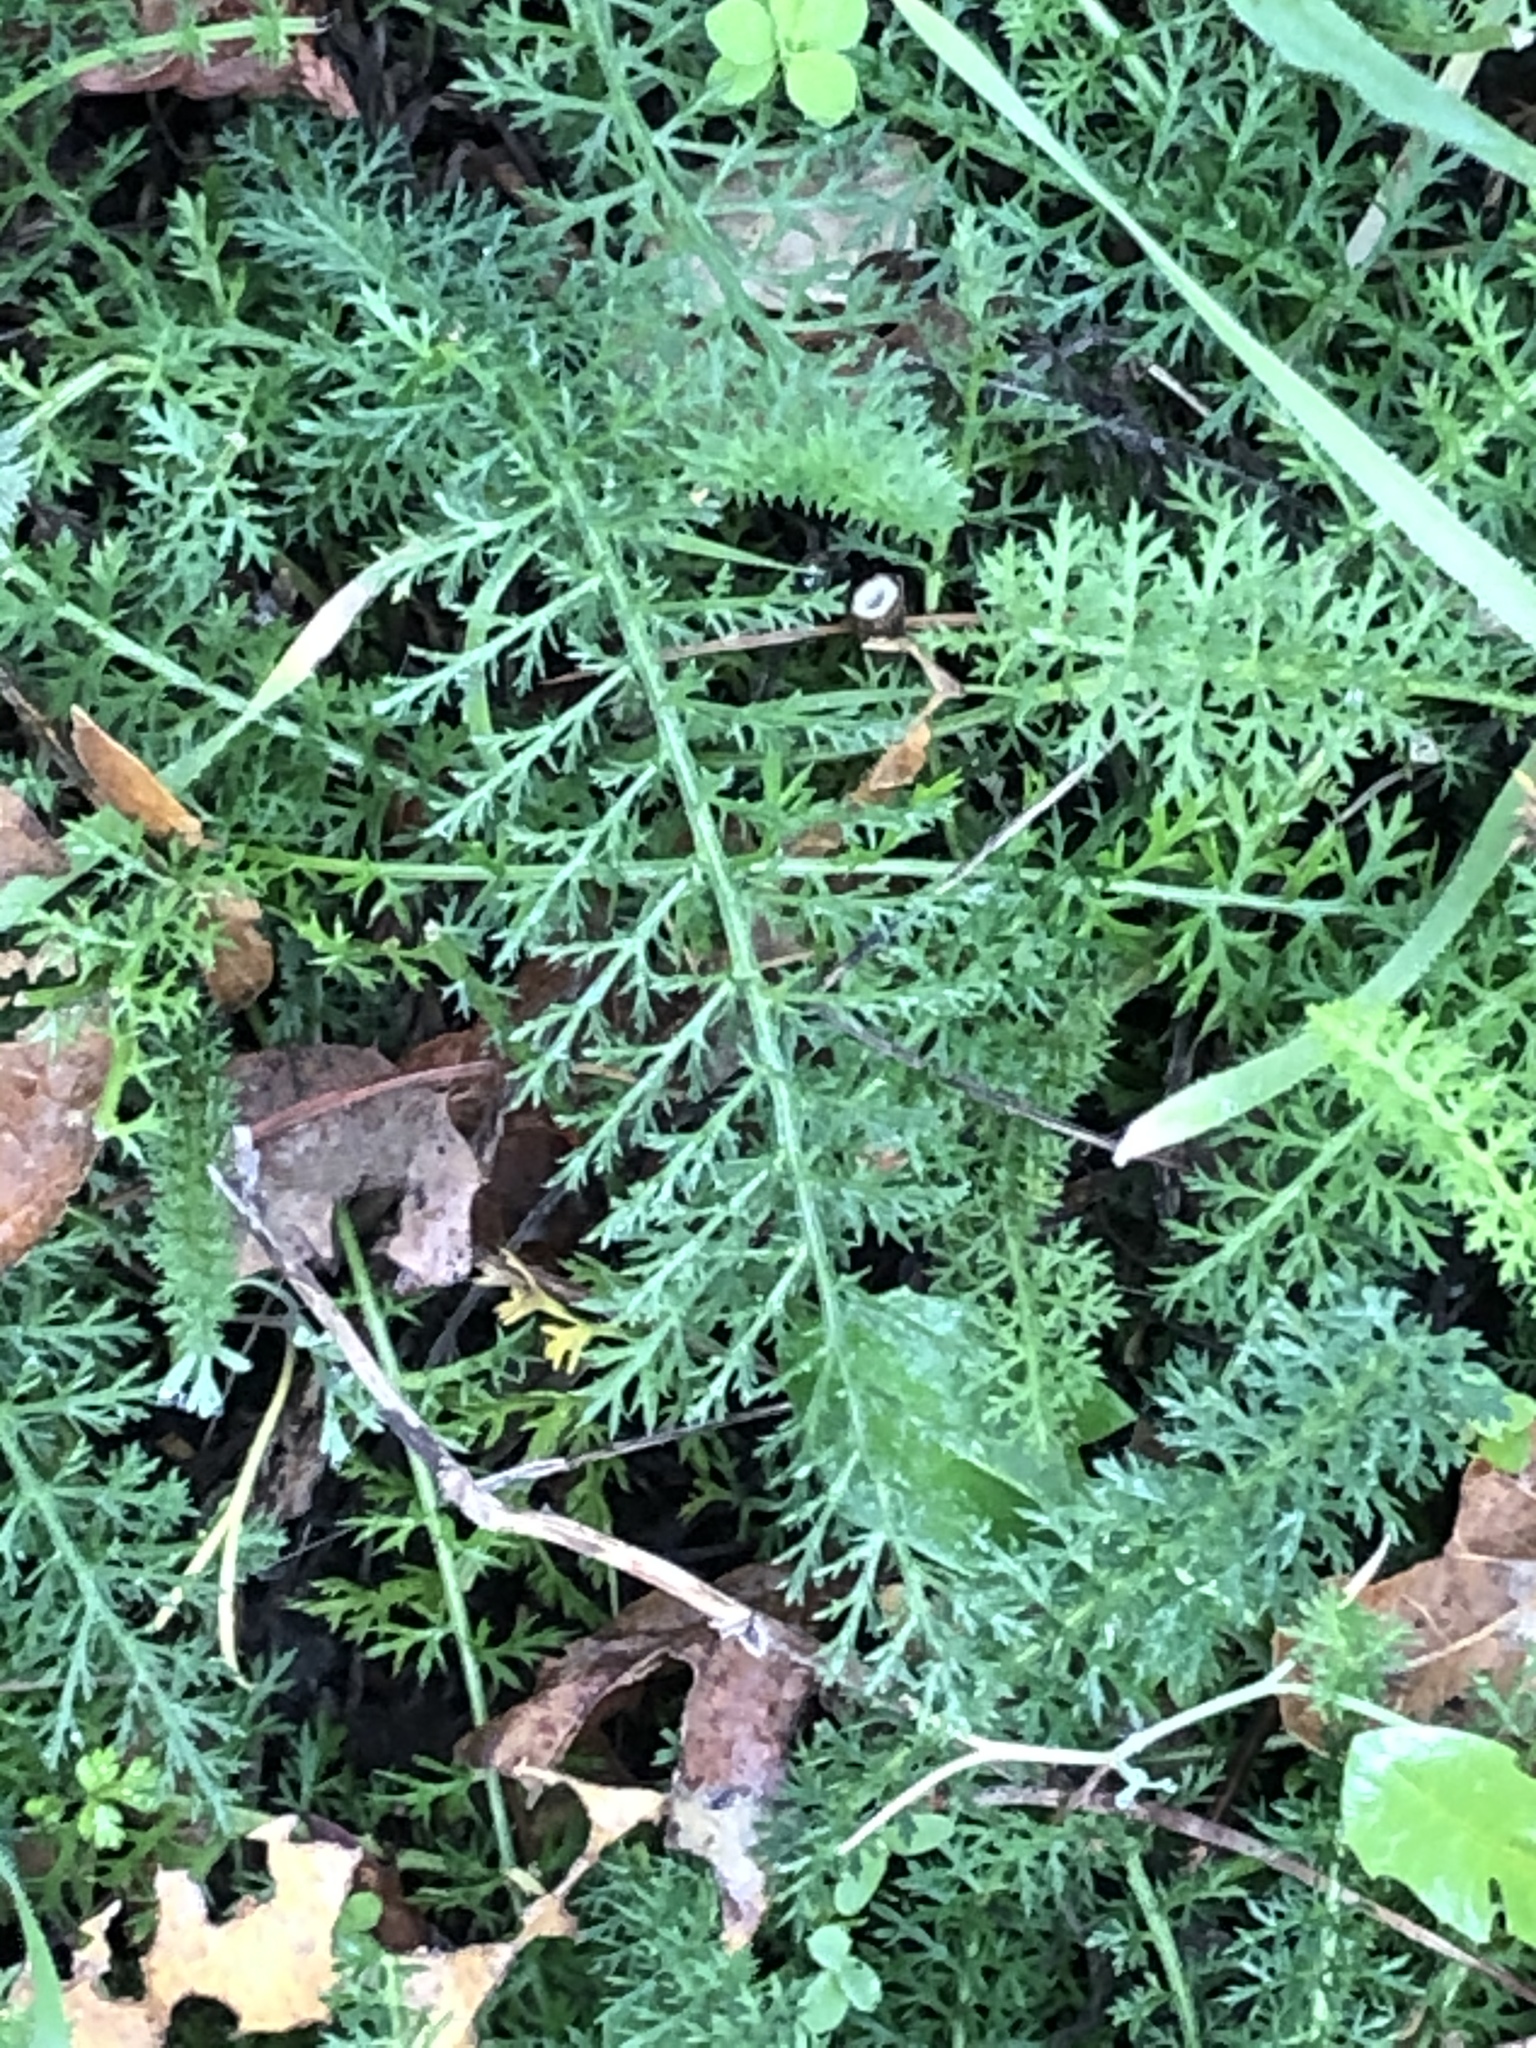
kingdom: Plantae
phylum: Tracheophyta
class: Magnoliopsida
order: Asterales
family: Asteraceae
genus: Achillea
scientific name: Achillea millefolium
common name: Yarrow
